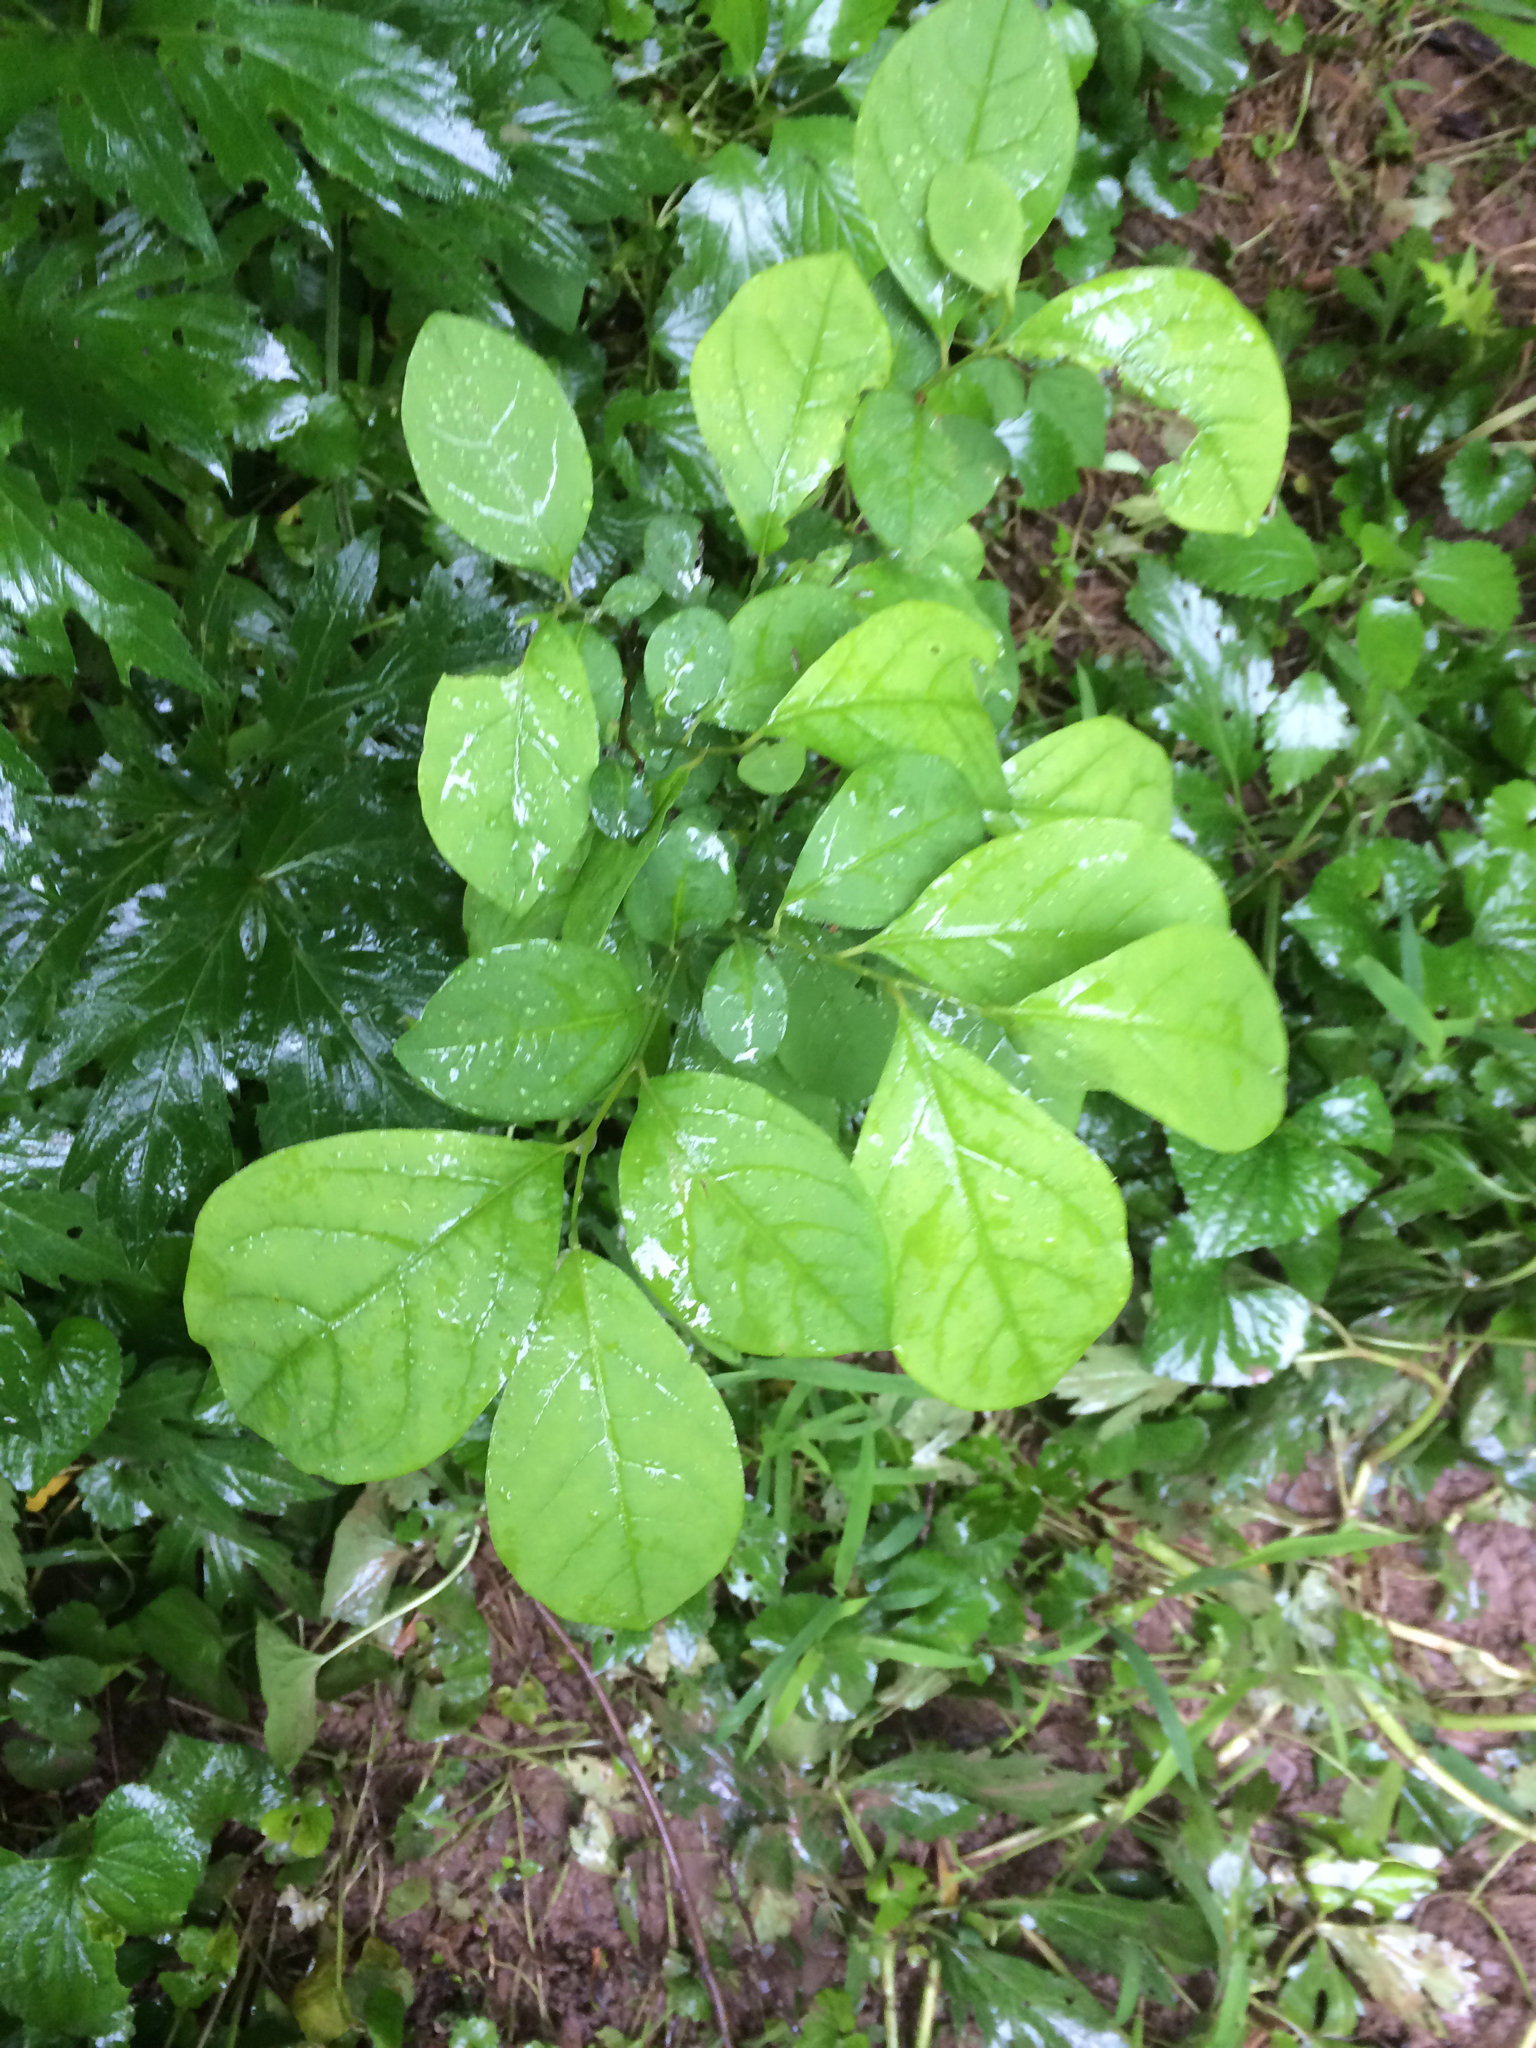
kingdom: Plantae
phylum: Tracheophyta
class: Magnoliopsida
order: Laurales
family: Lauraceae
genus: Lindera
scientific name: Lindera benzoin
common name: Spicebush
